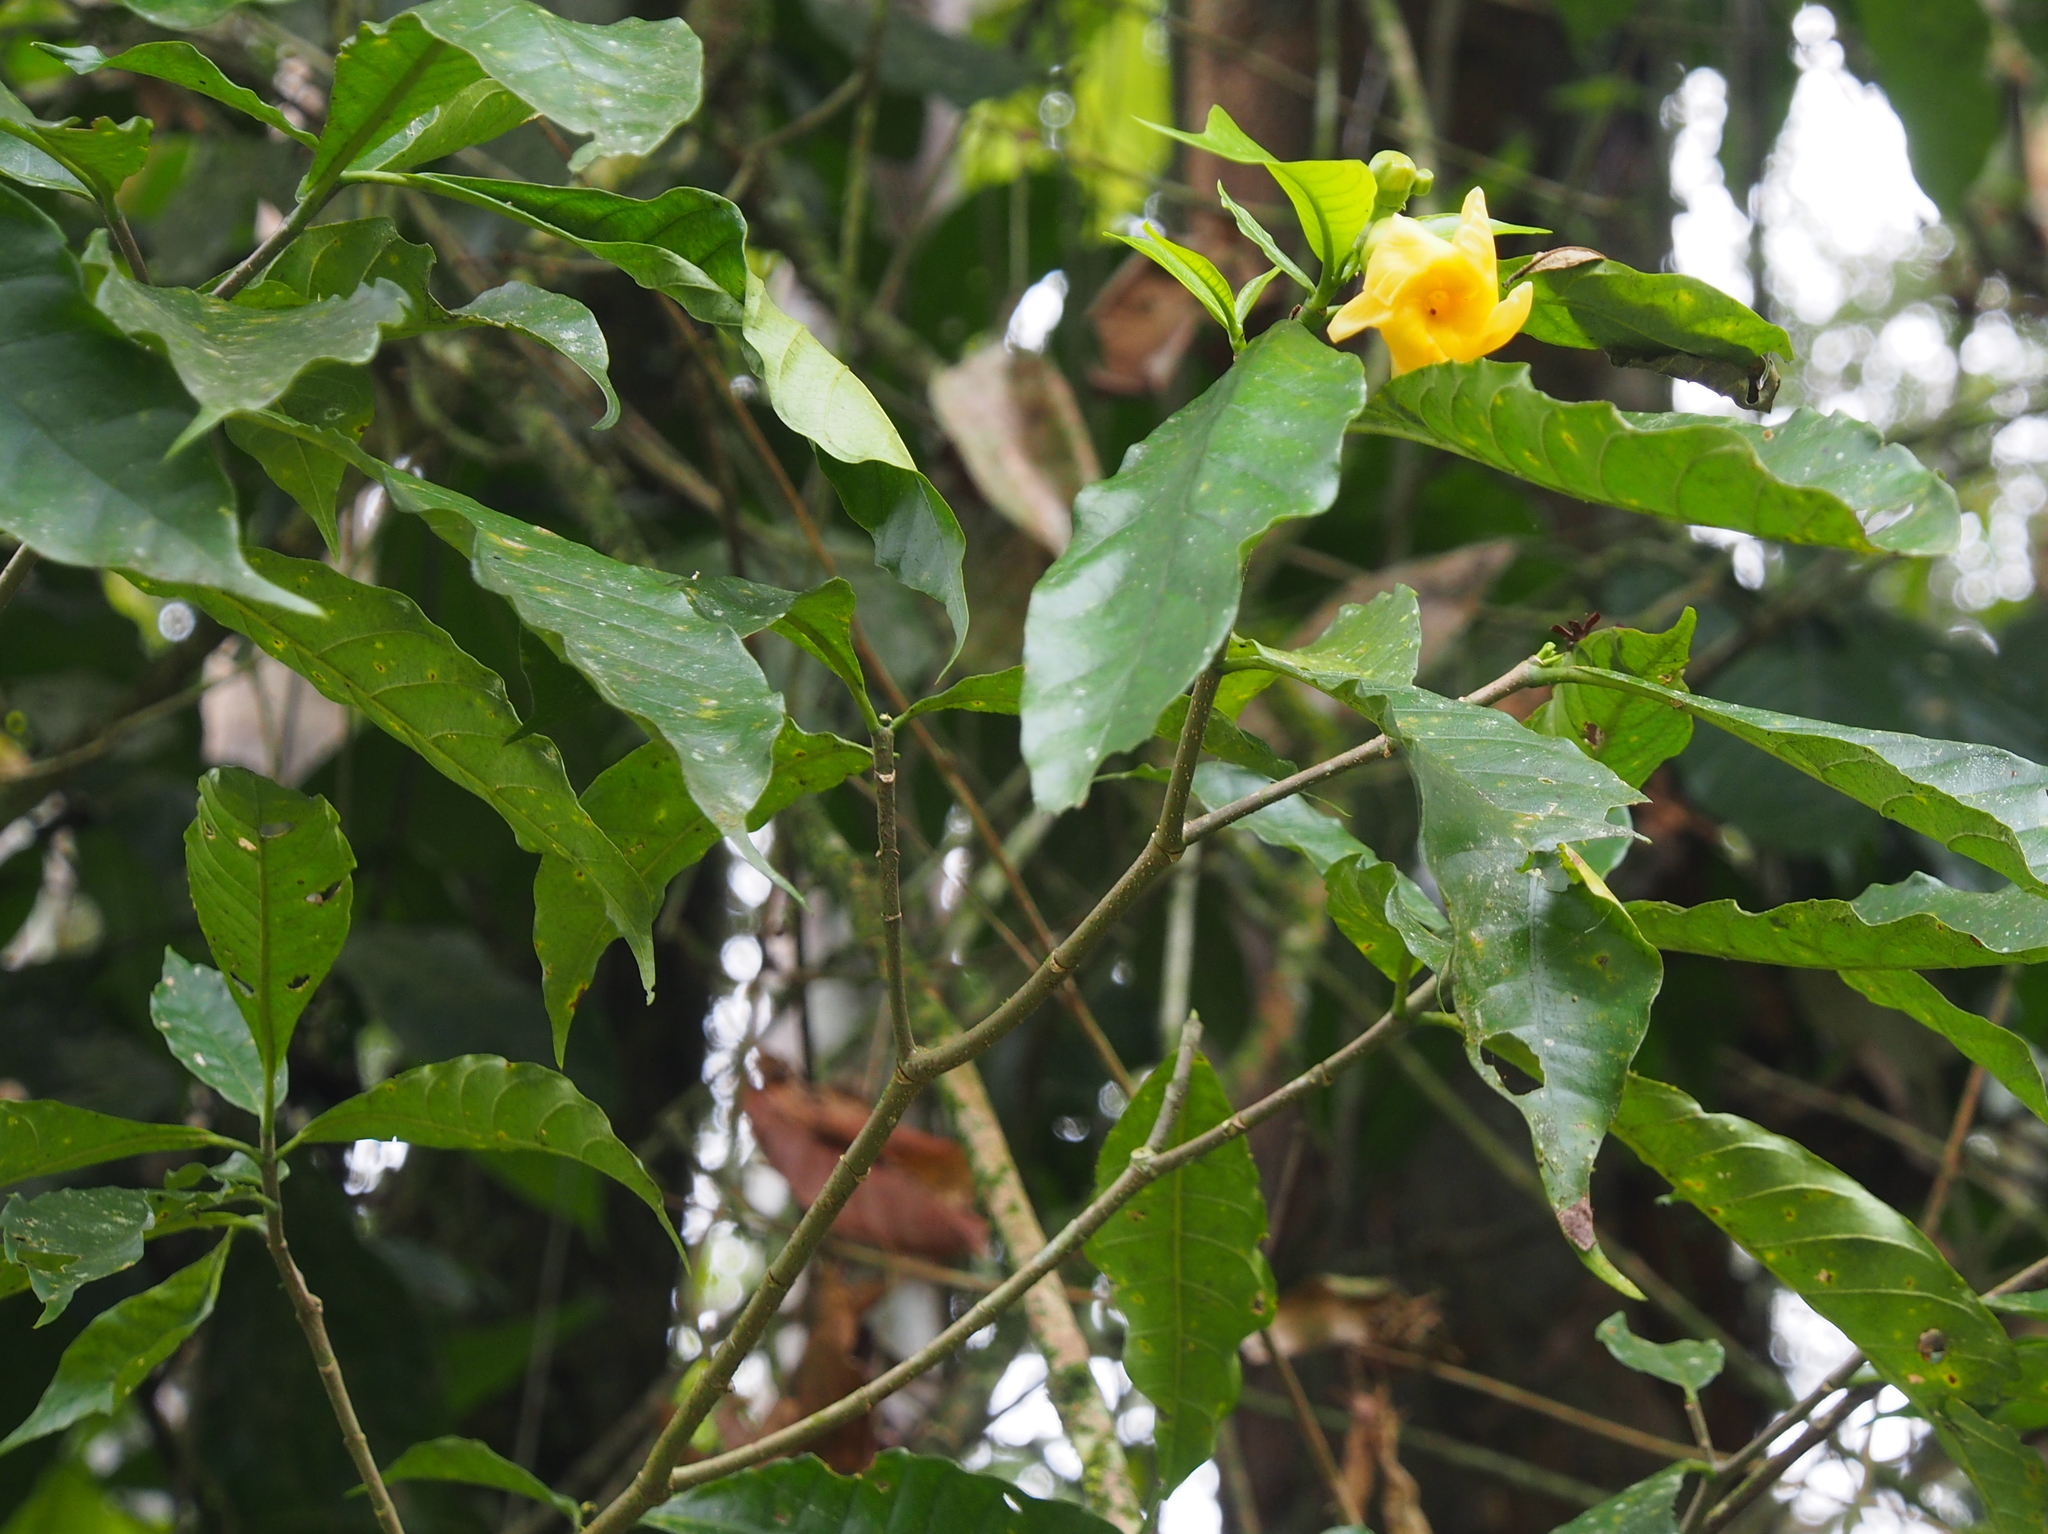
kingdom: Plantae
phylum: Tracheophyta
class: Magnoliopsida
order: Gentianales
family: Apocynaceae
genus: Tabernaemontana
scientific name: Tabernaemontana robinsonii
